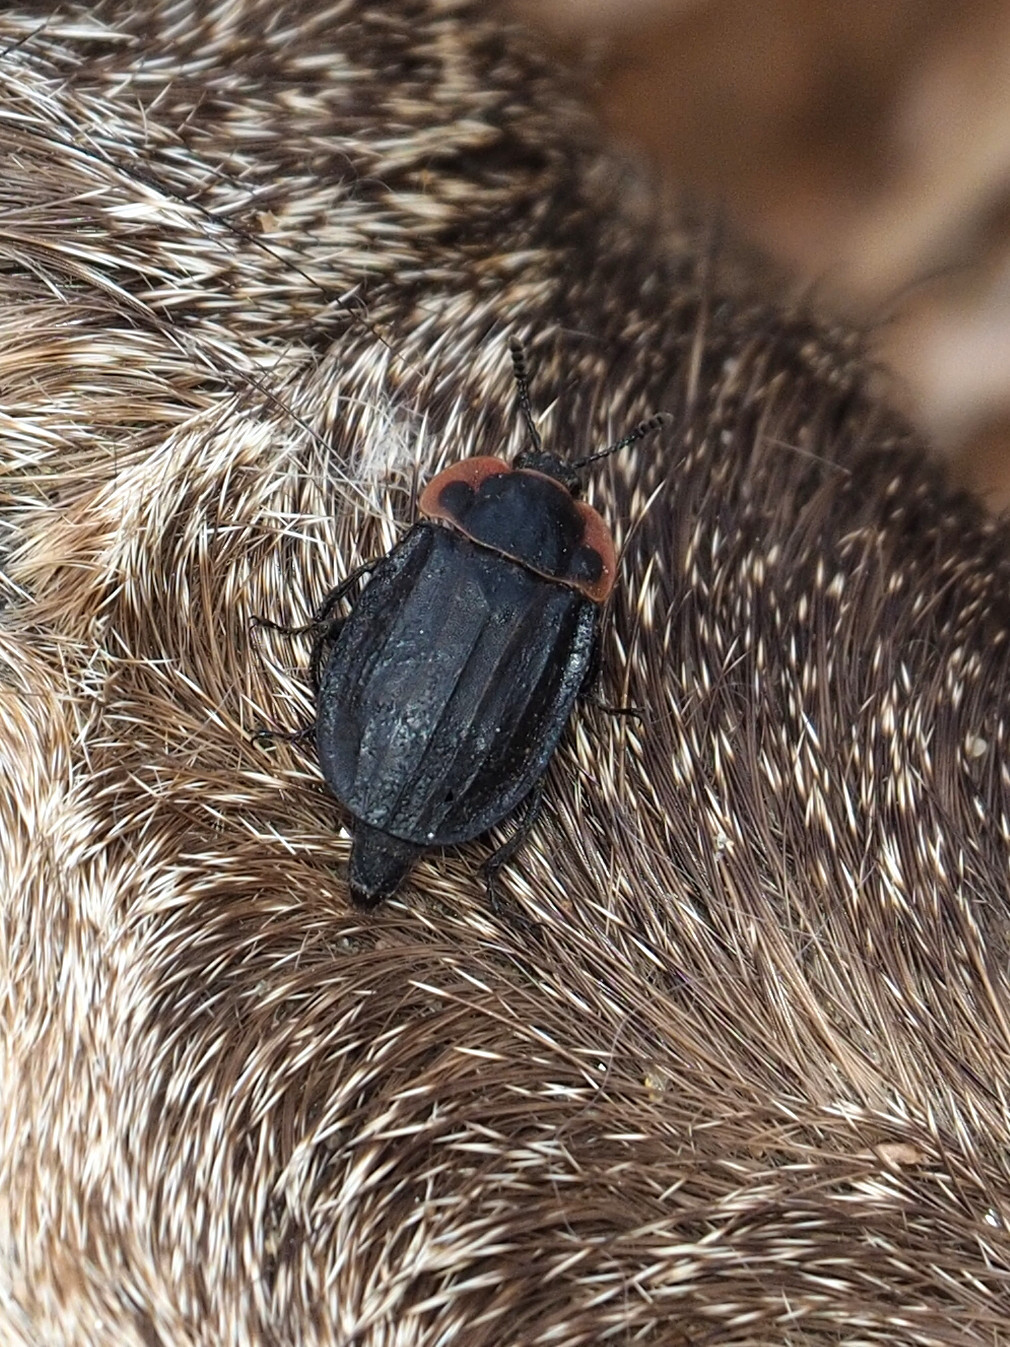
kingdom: Animalia
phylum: Arthropoda
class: Insecta
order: Coleoptera
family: Staphylinidae
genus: Oiceoptoma
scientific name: Oiceoptoma noveboracense
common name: Margined carrion beetle
